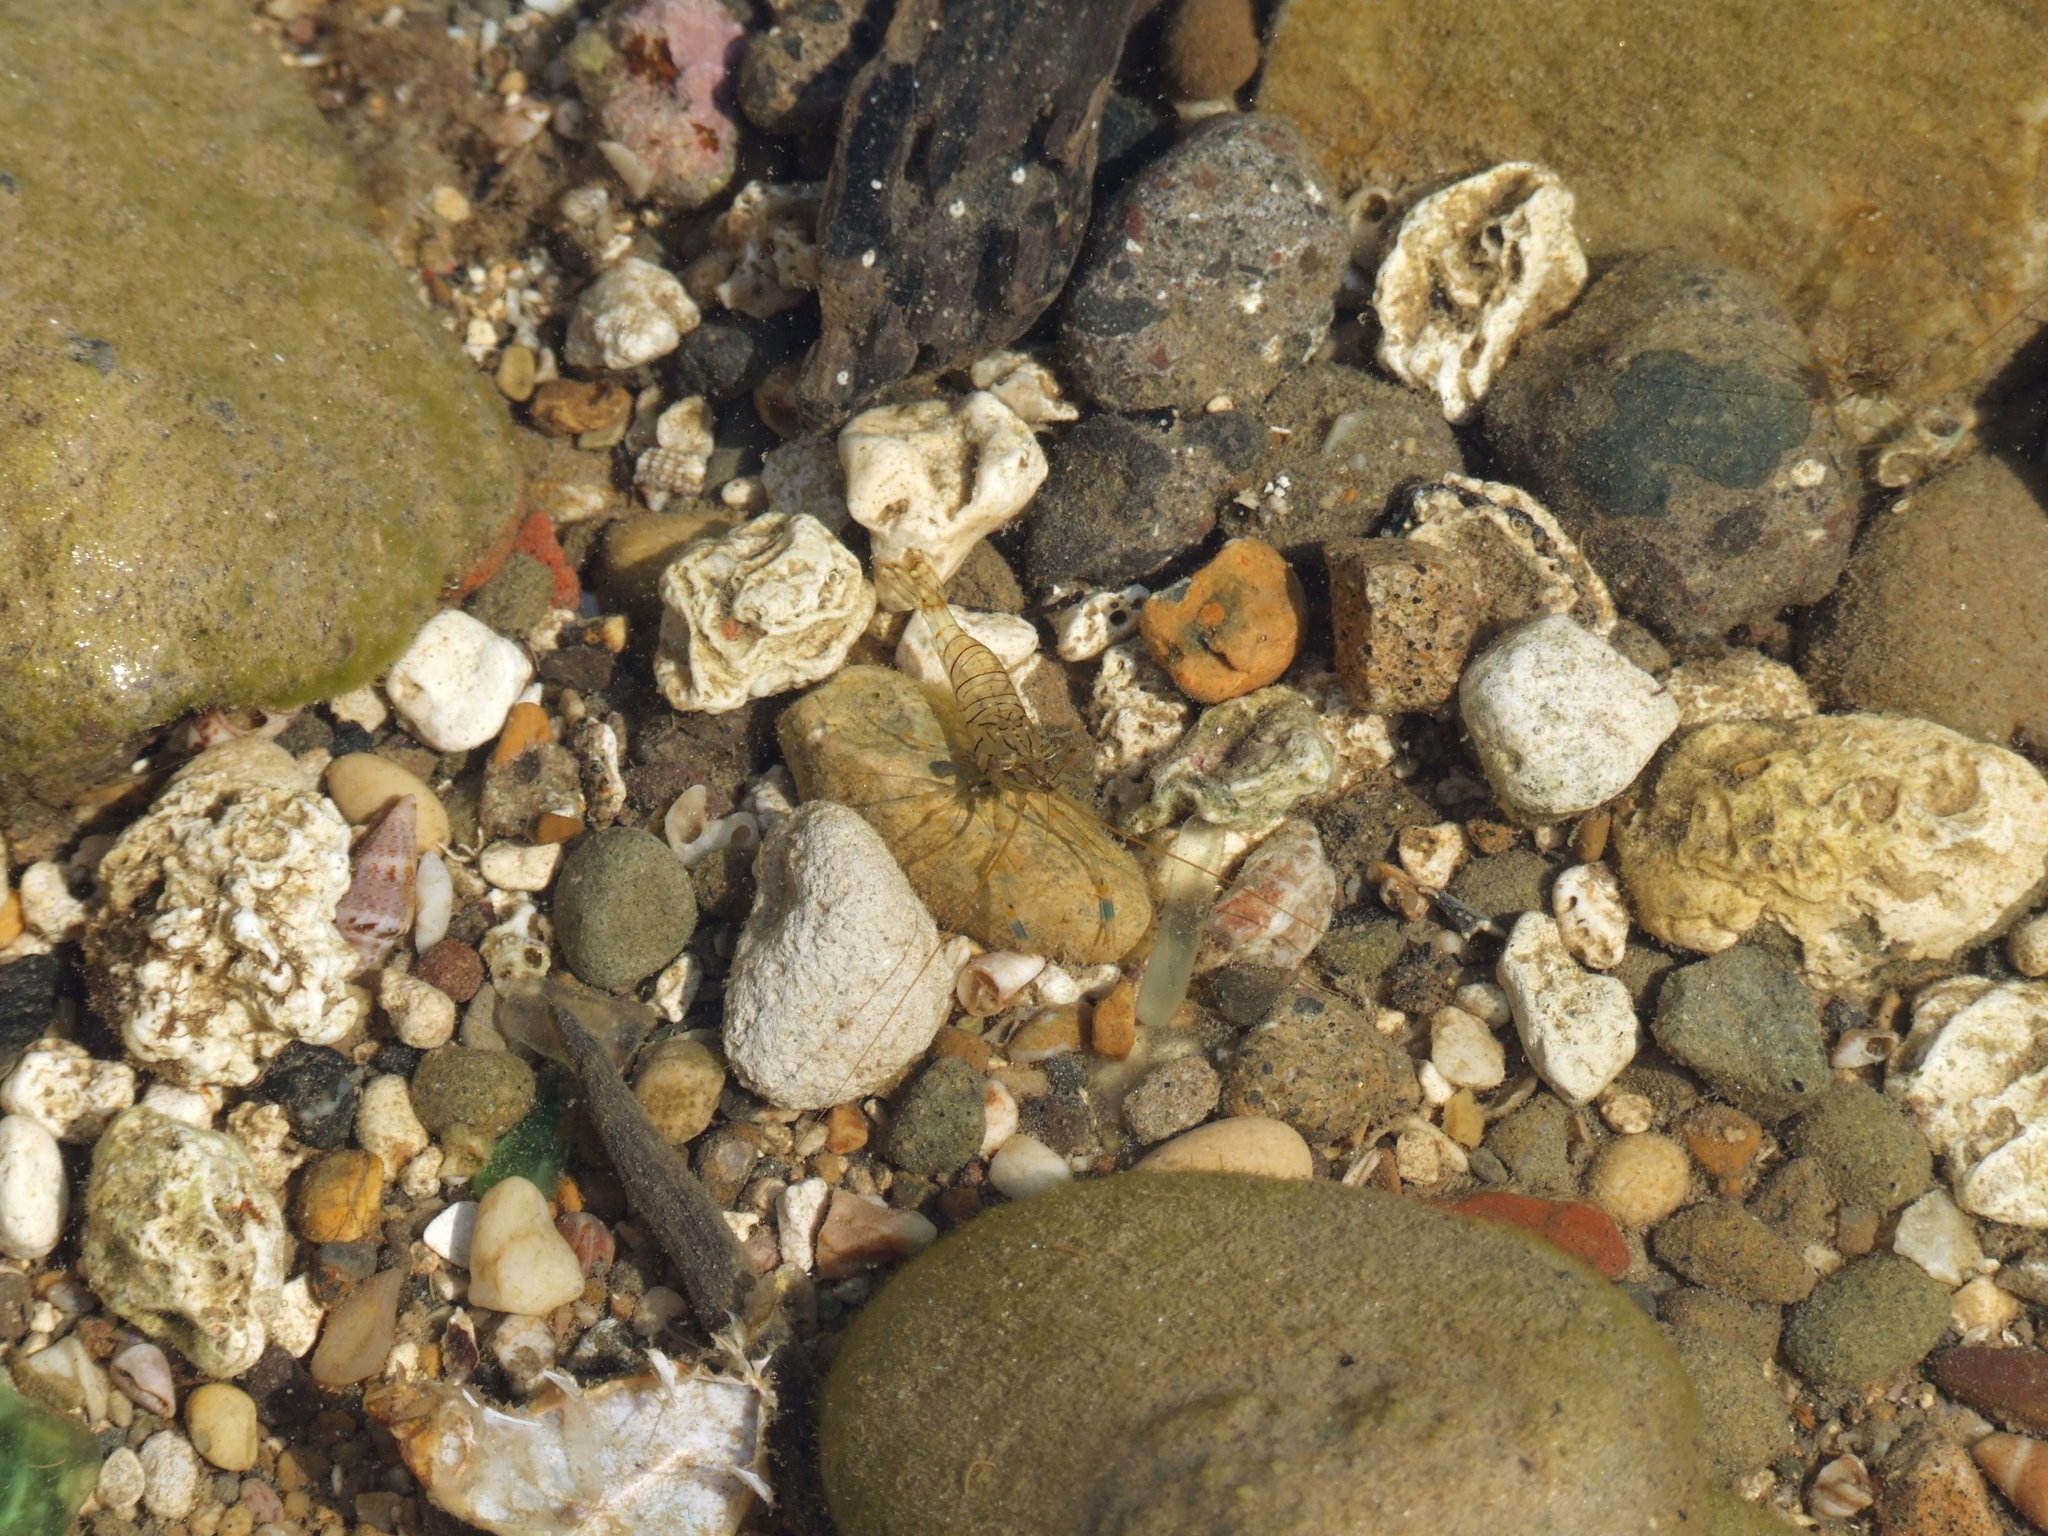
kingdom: Animalia
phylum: Arthropoda
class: Malacostraca
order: Decapoda
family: Palaemonidae
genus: Palaemon
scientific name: Palaemon elegans
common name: Grass prawm
